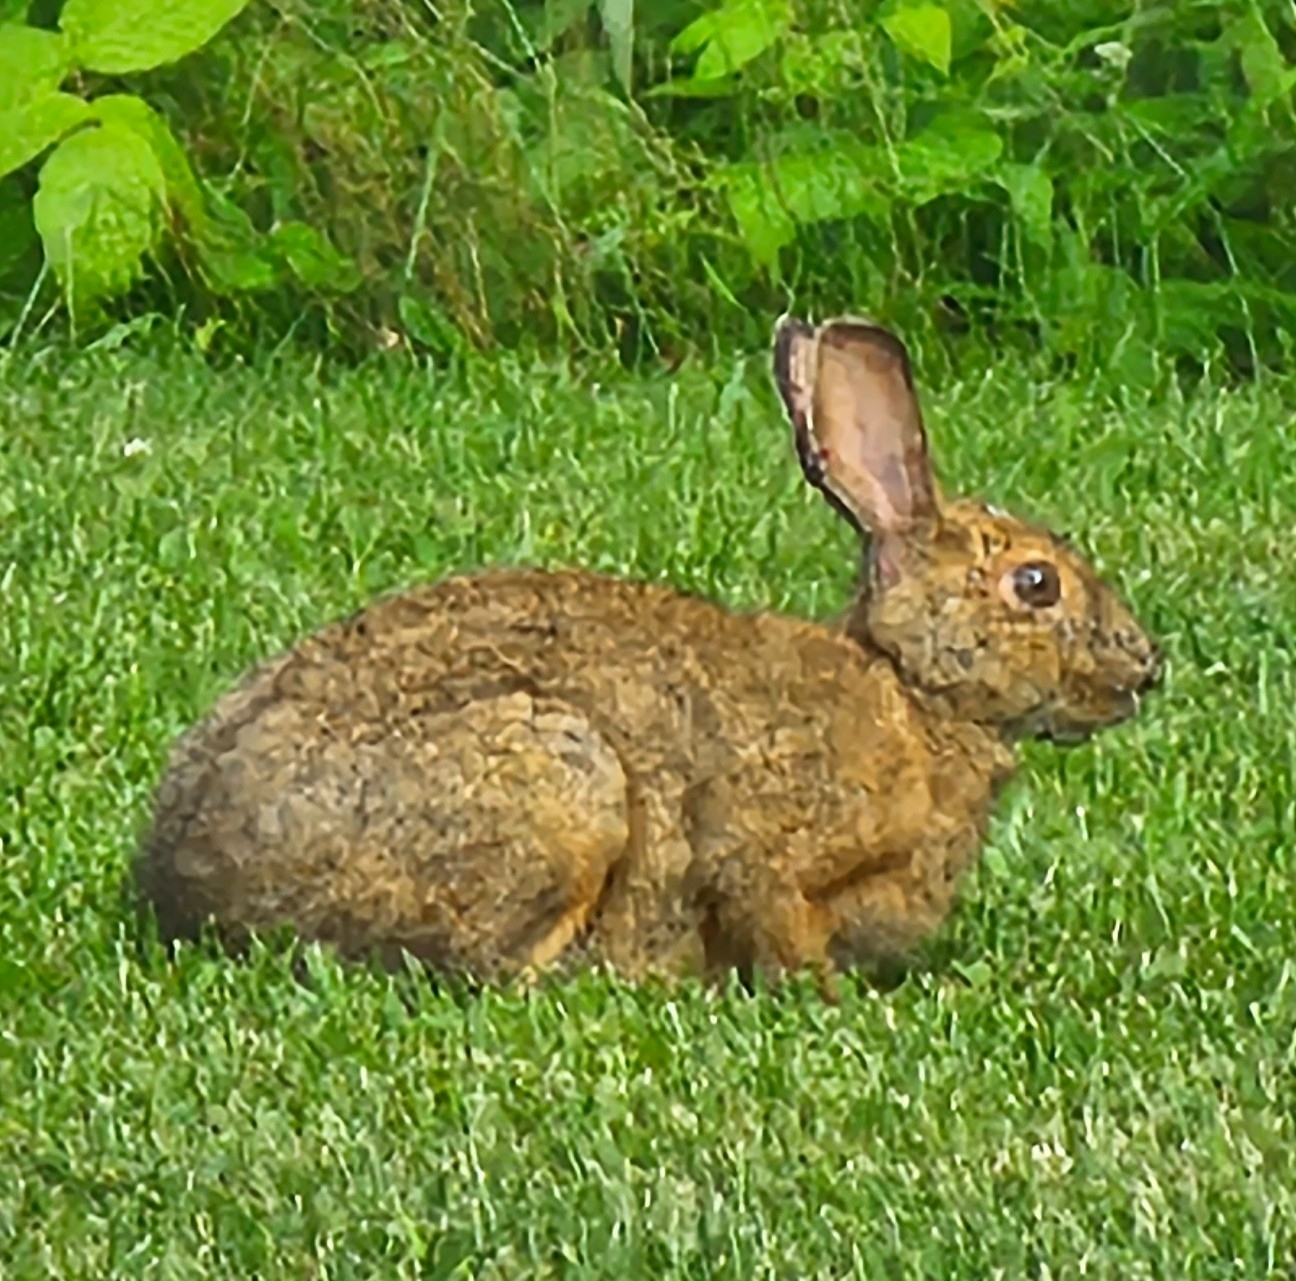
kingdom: Animalia
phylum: Chordata
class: Mammalia
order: Lagomorpha
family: Leporidae
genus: Lepus
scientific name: Lepus americanus
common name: Snowshoe hare
